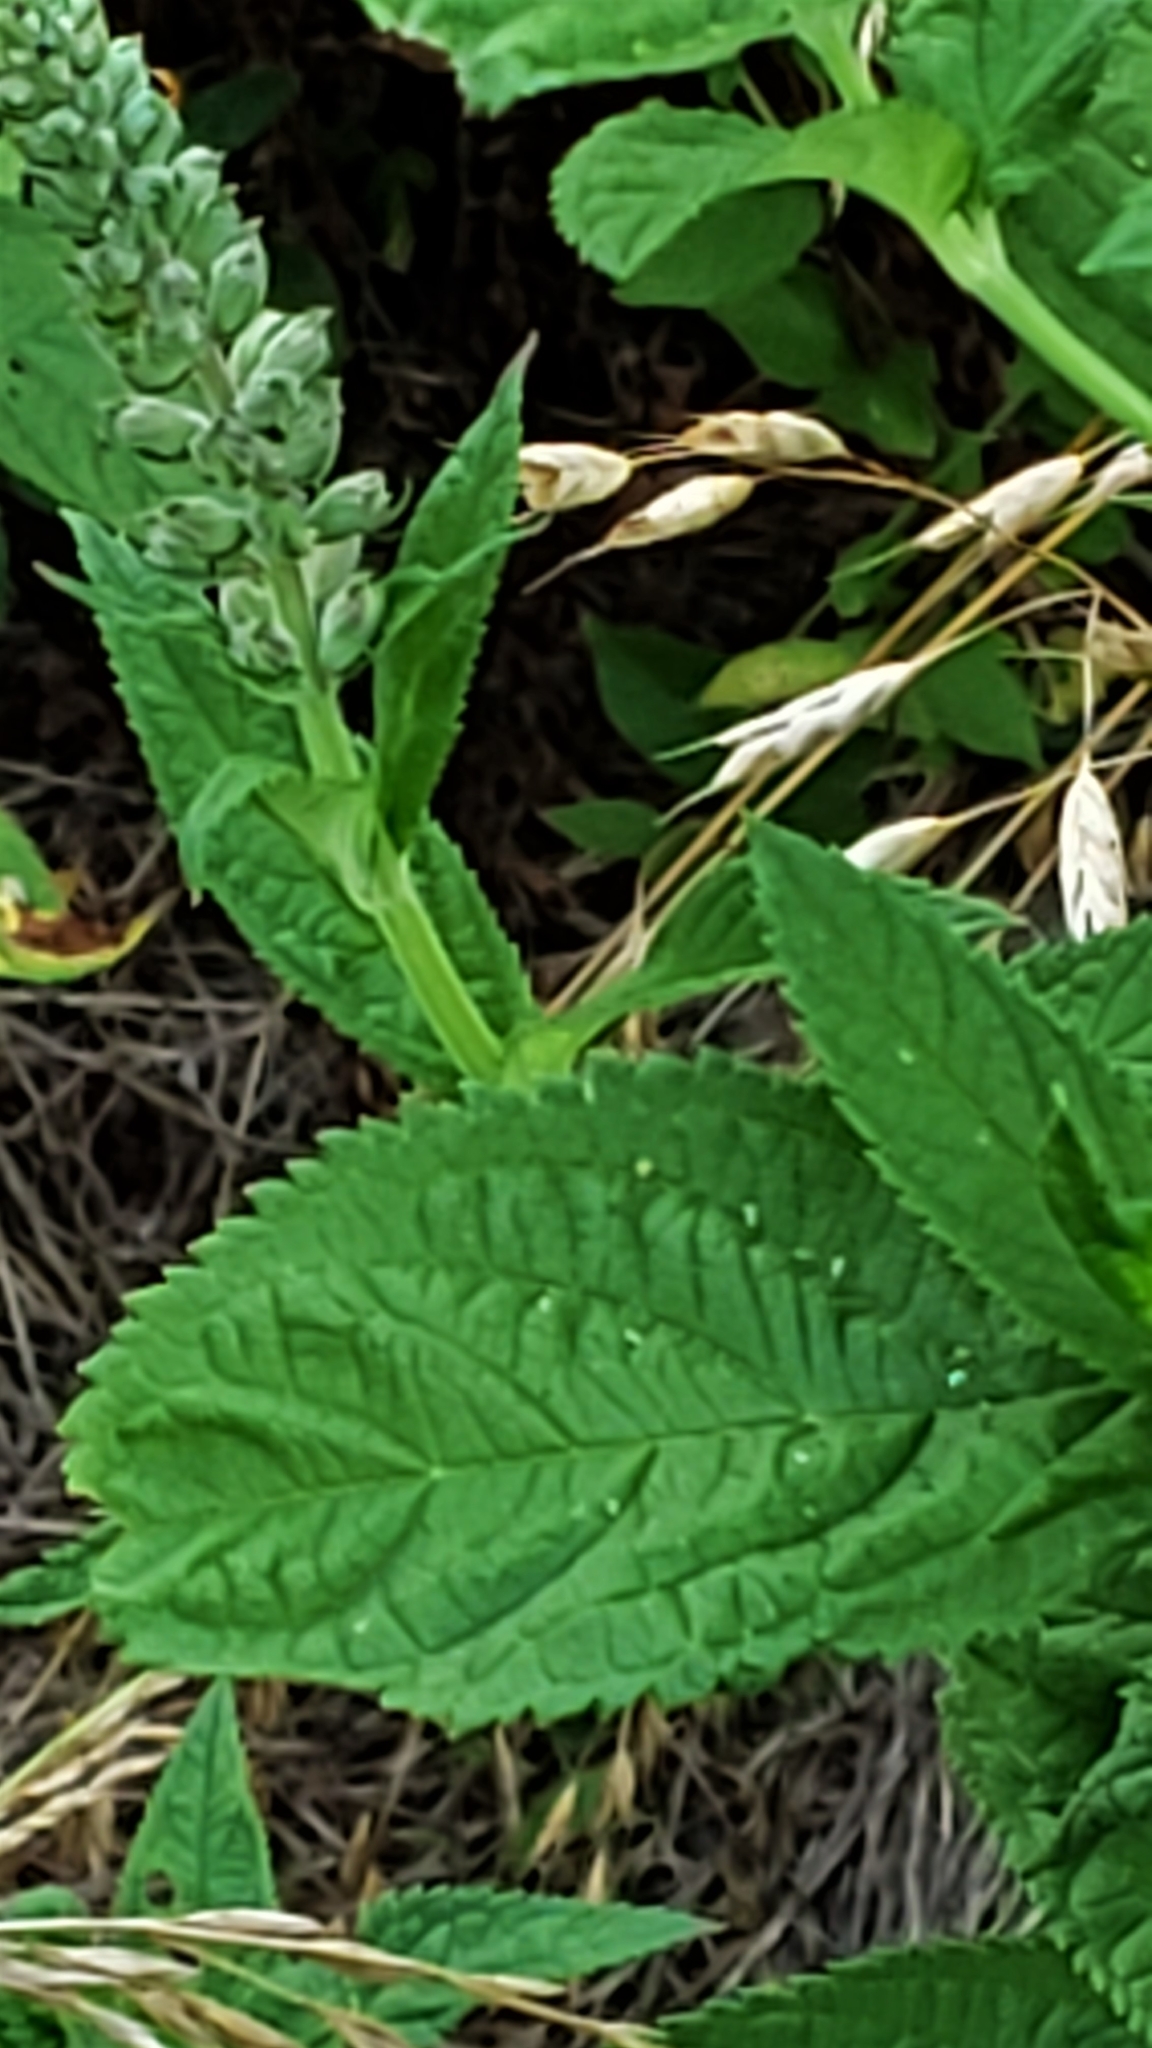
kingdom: Plantae
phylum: Tracheophyta
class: Magnoliopsida
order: Lamiales
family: Lamiaceae
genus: Teucrium
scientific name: Teucrium canadense
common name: American germander
